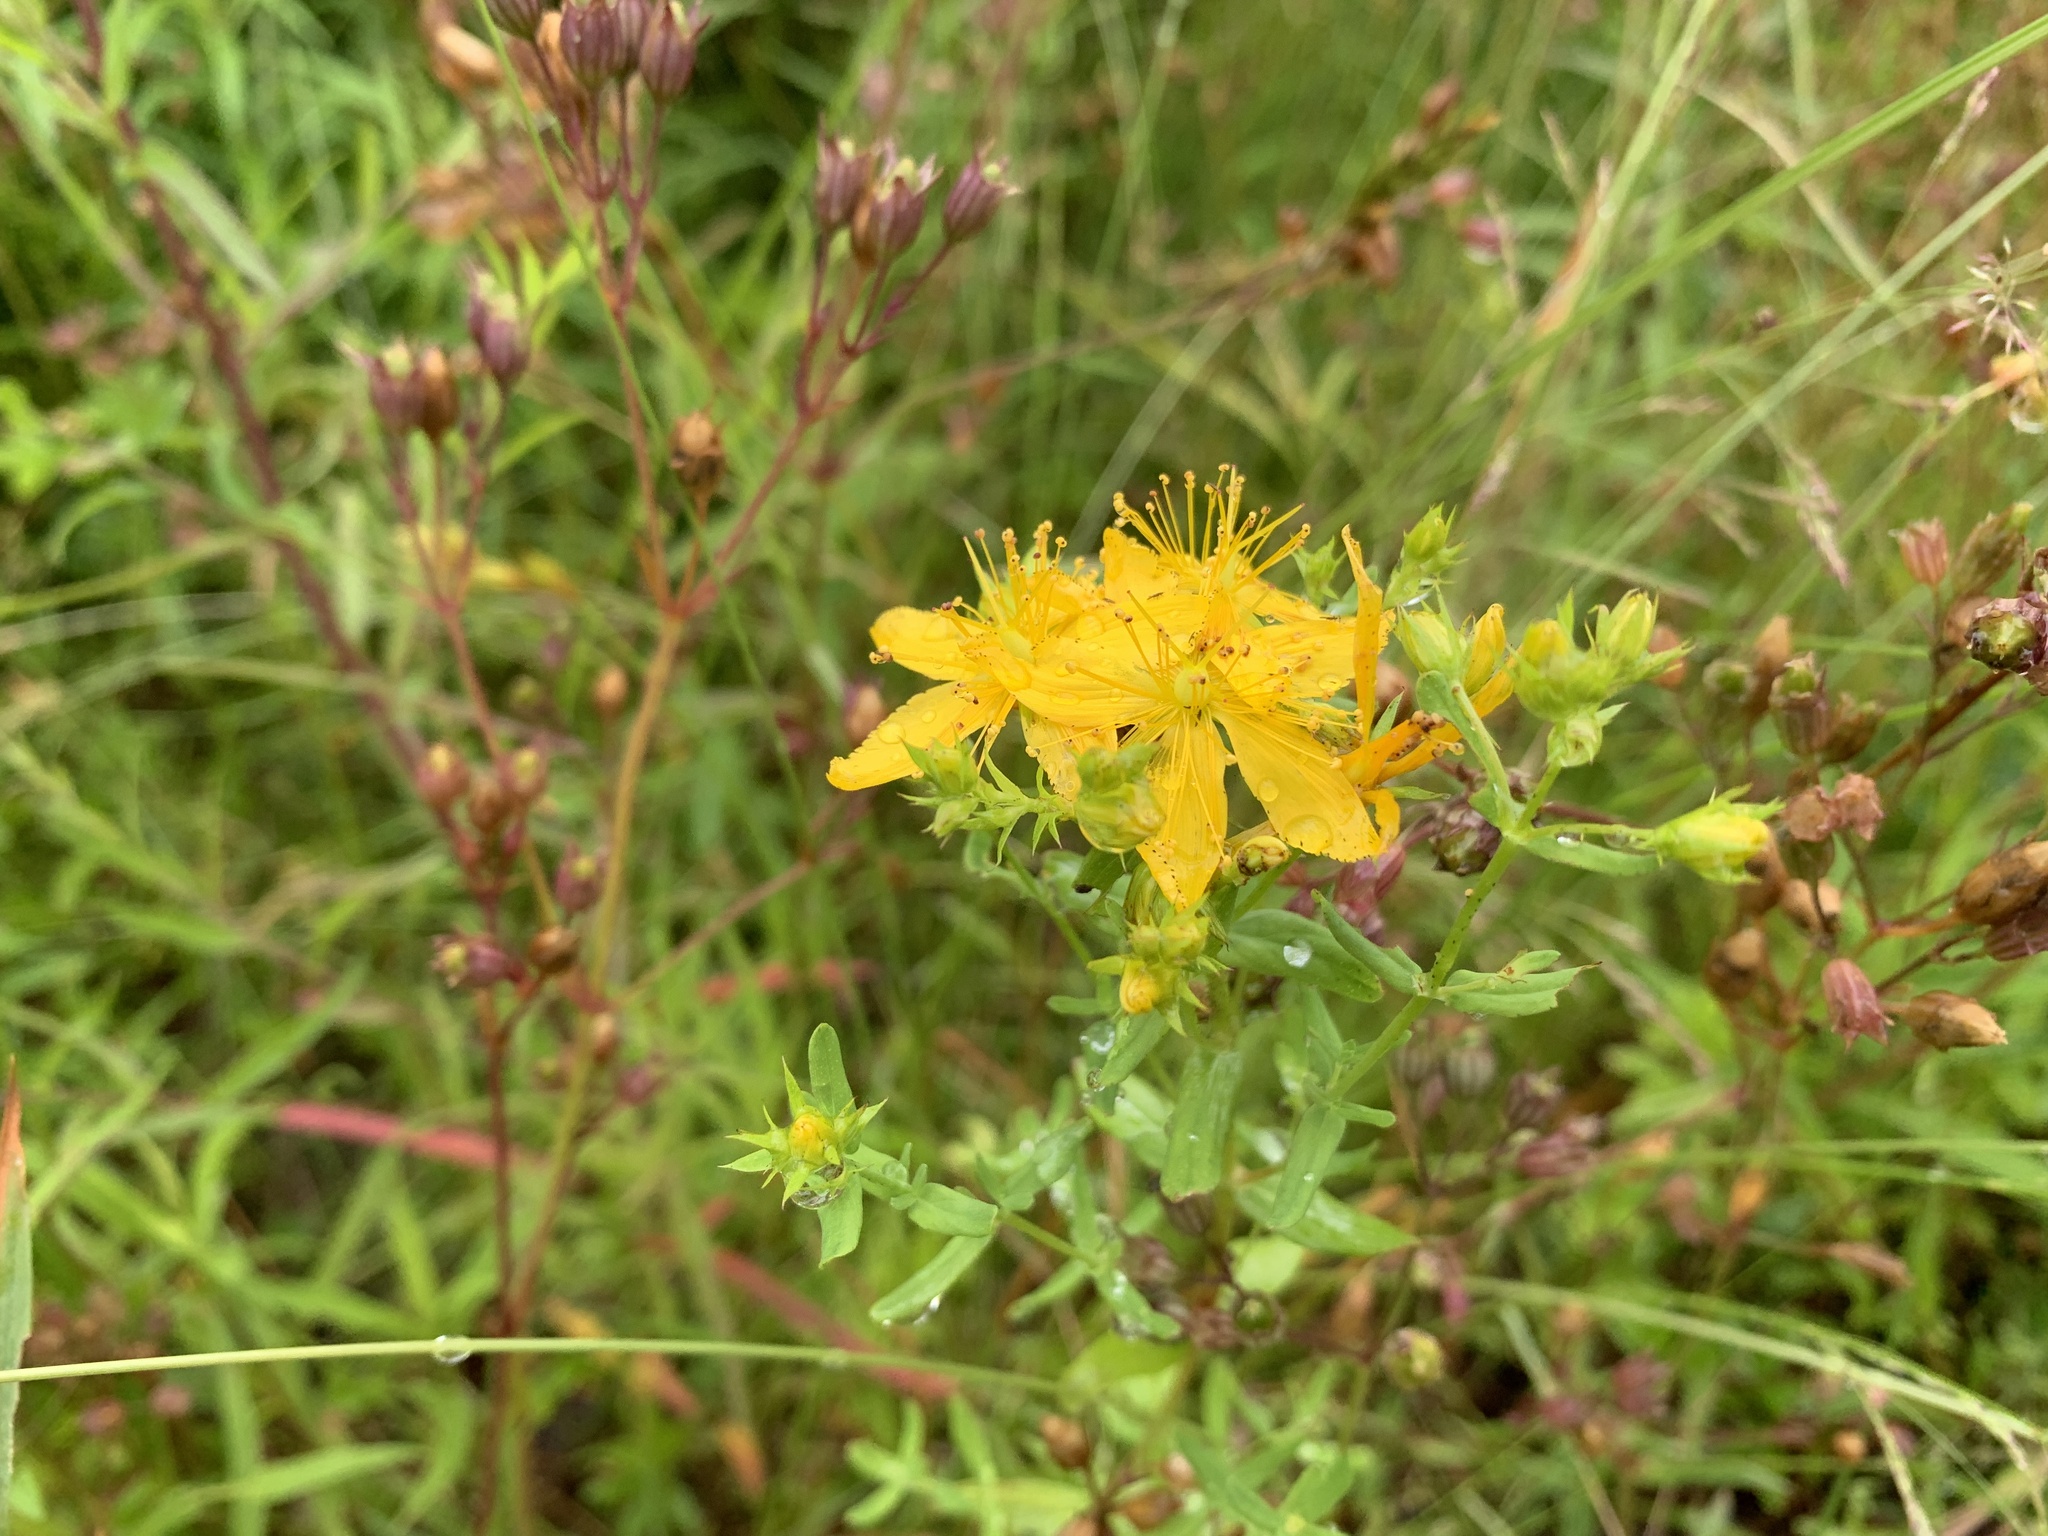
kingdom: Plantae
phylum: Tracheophyta
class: Magnoliopsida
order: Malpighiales
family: Hypericaceae
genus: Hypericum
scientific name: Hypericum perforatum
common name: Common st. johnswort
